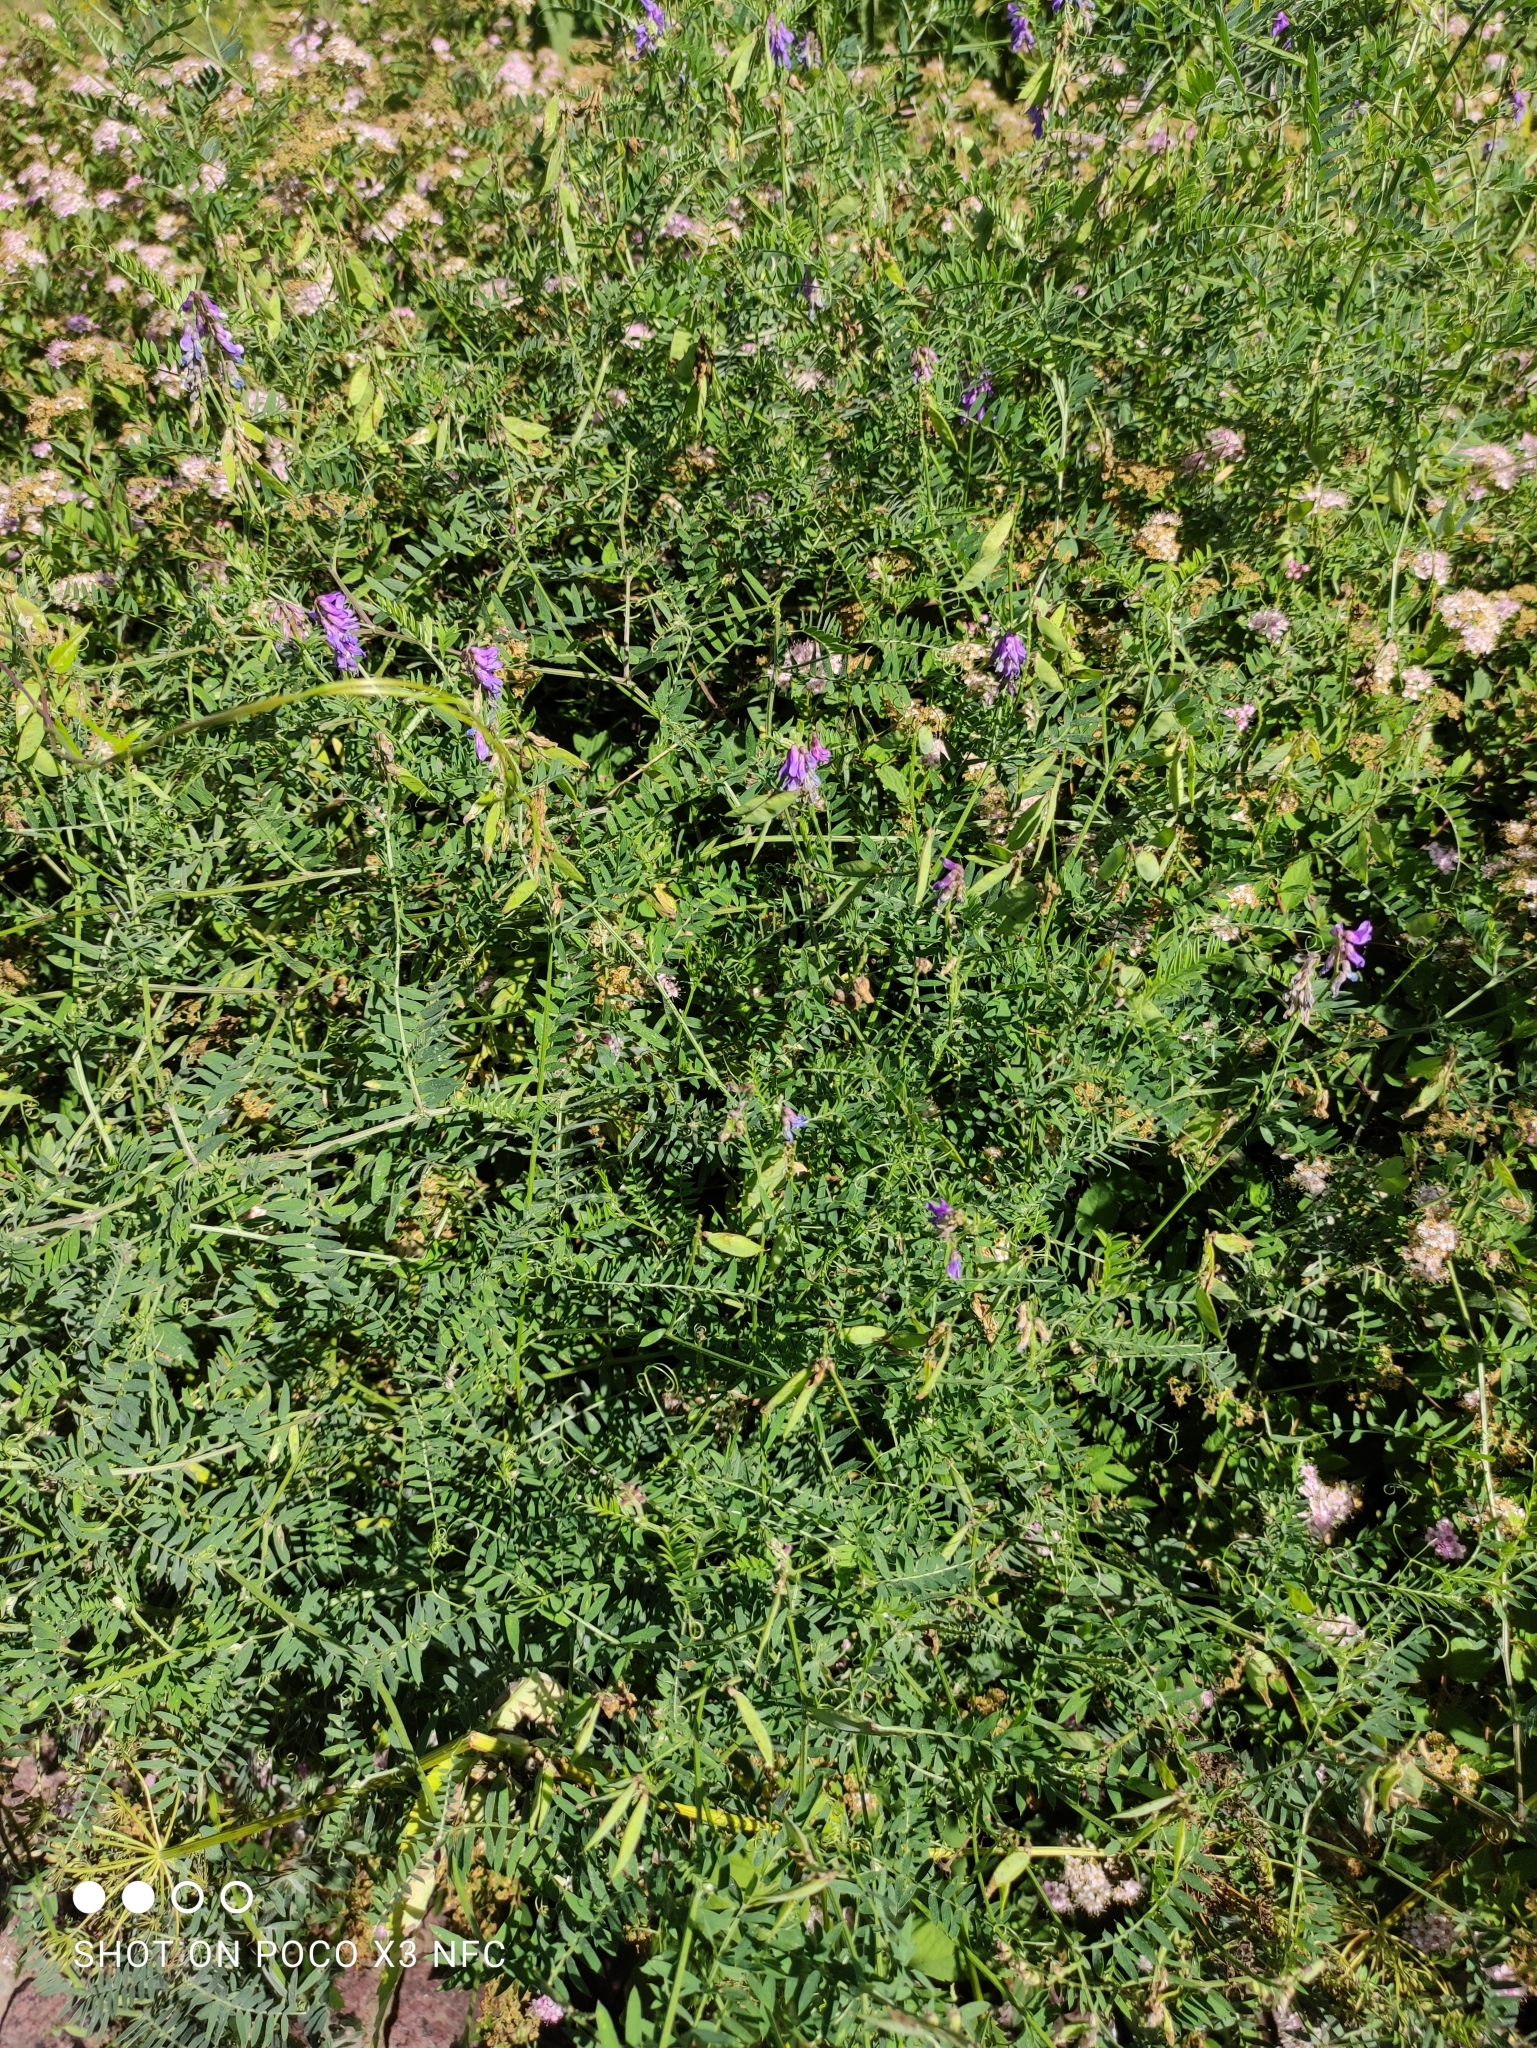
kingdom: Plantae
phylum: Tracheophyta
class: Magnoliopsida
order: Fabales
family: Fabaceae
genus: Vicia
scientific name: Vicia cracca
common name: Bird vetch
